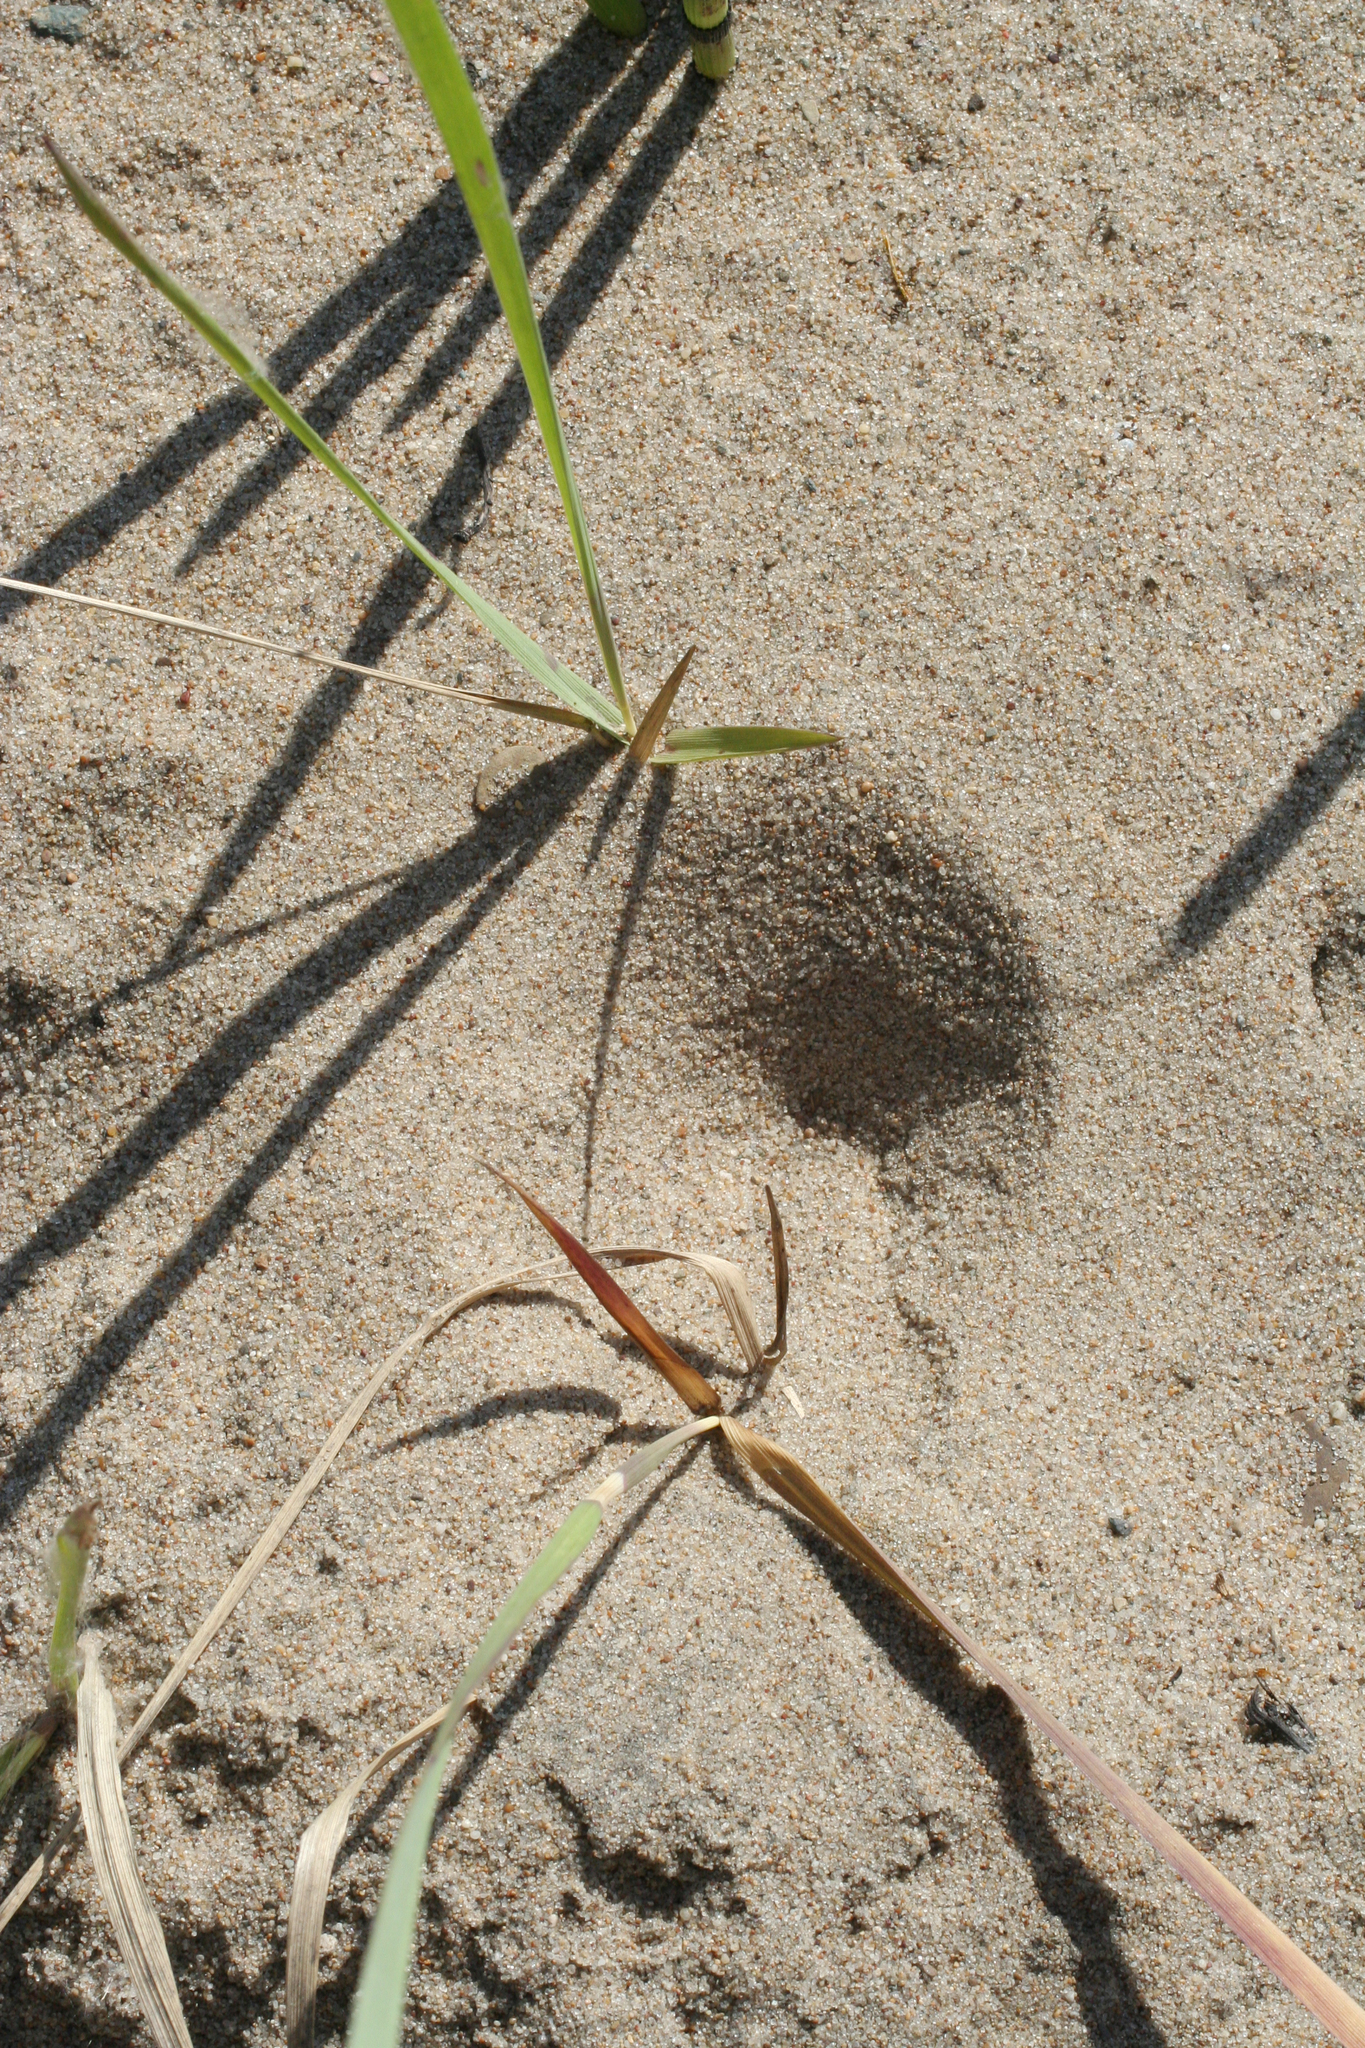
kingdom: Animalia
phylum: Arthropoda
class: Insecta
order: Neuroptera
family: Myrmeleontidae
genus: Myrmeleon
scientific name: Myrmeleon formicarius
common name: Ant-lion
